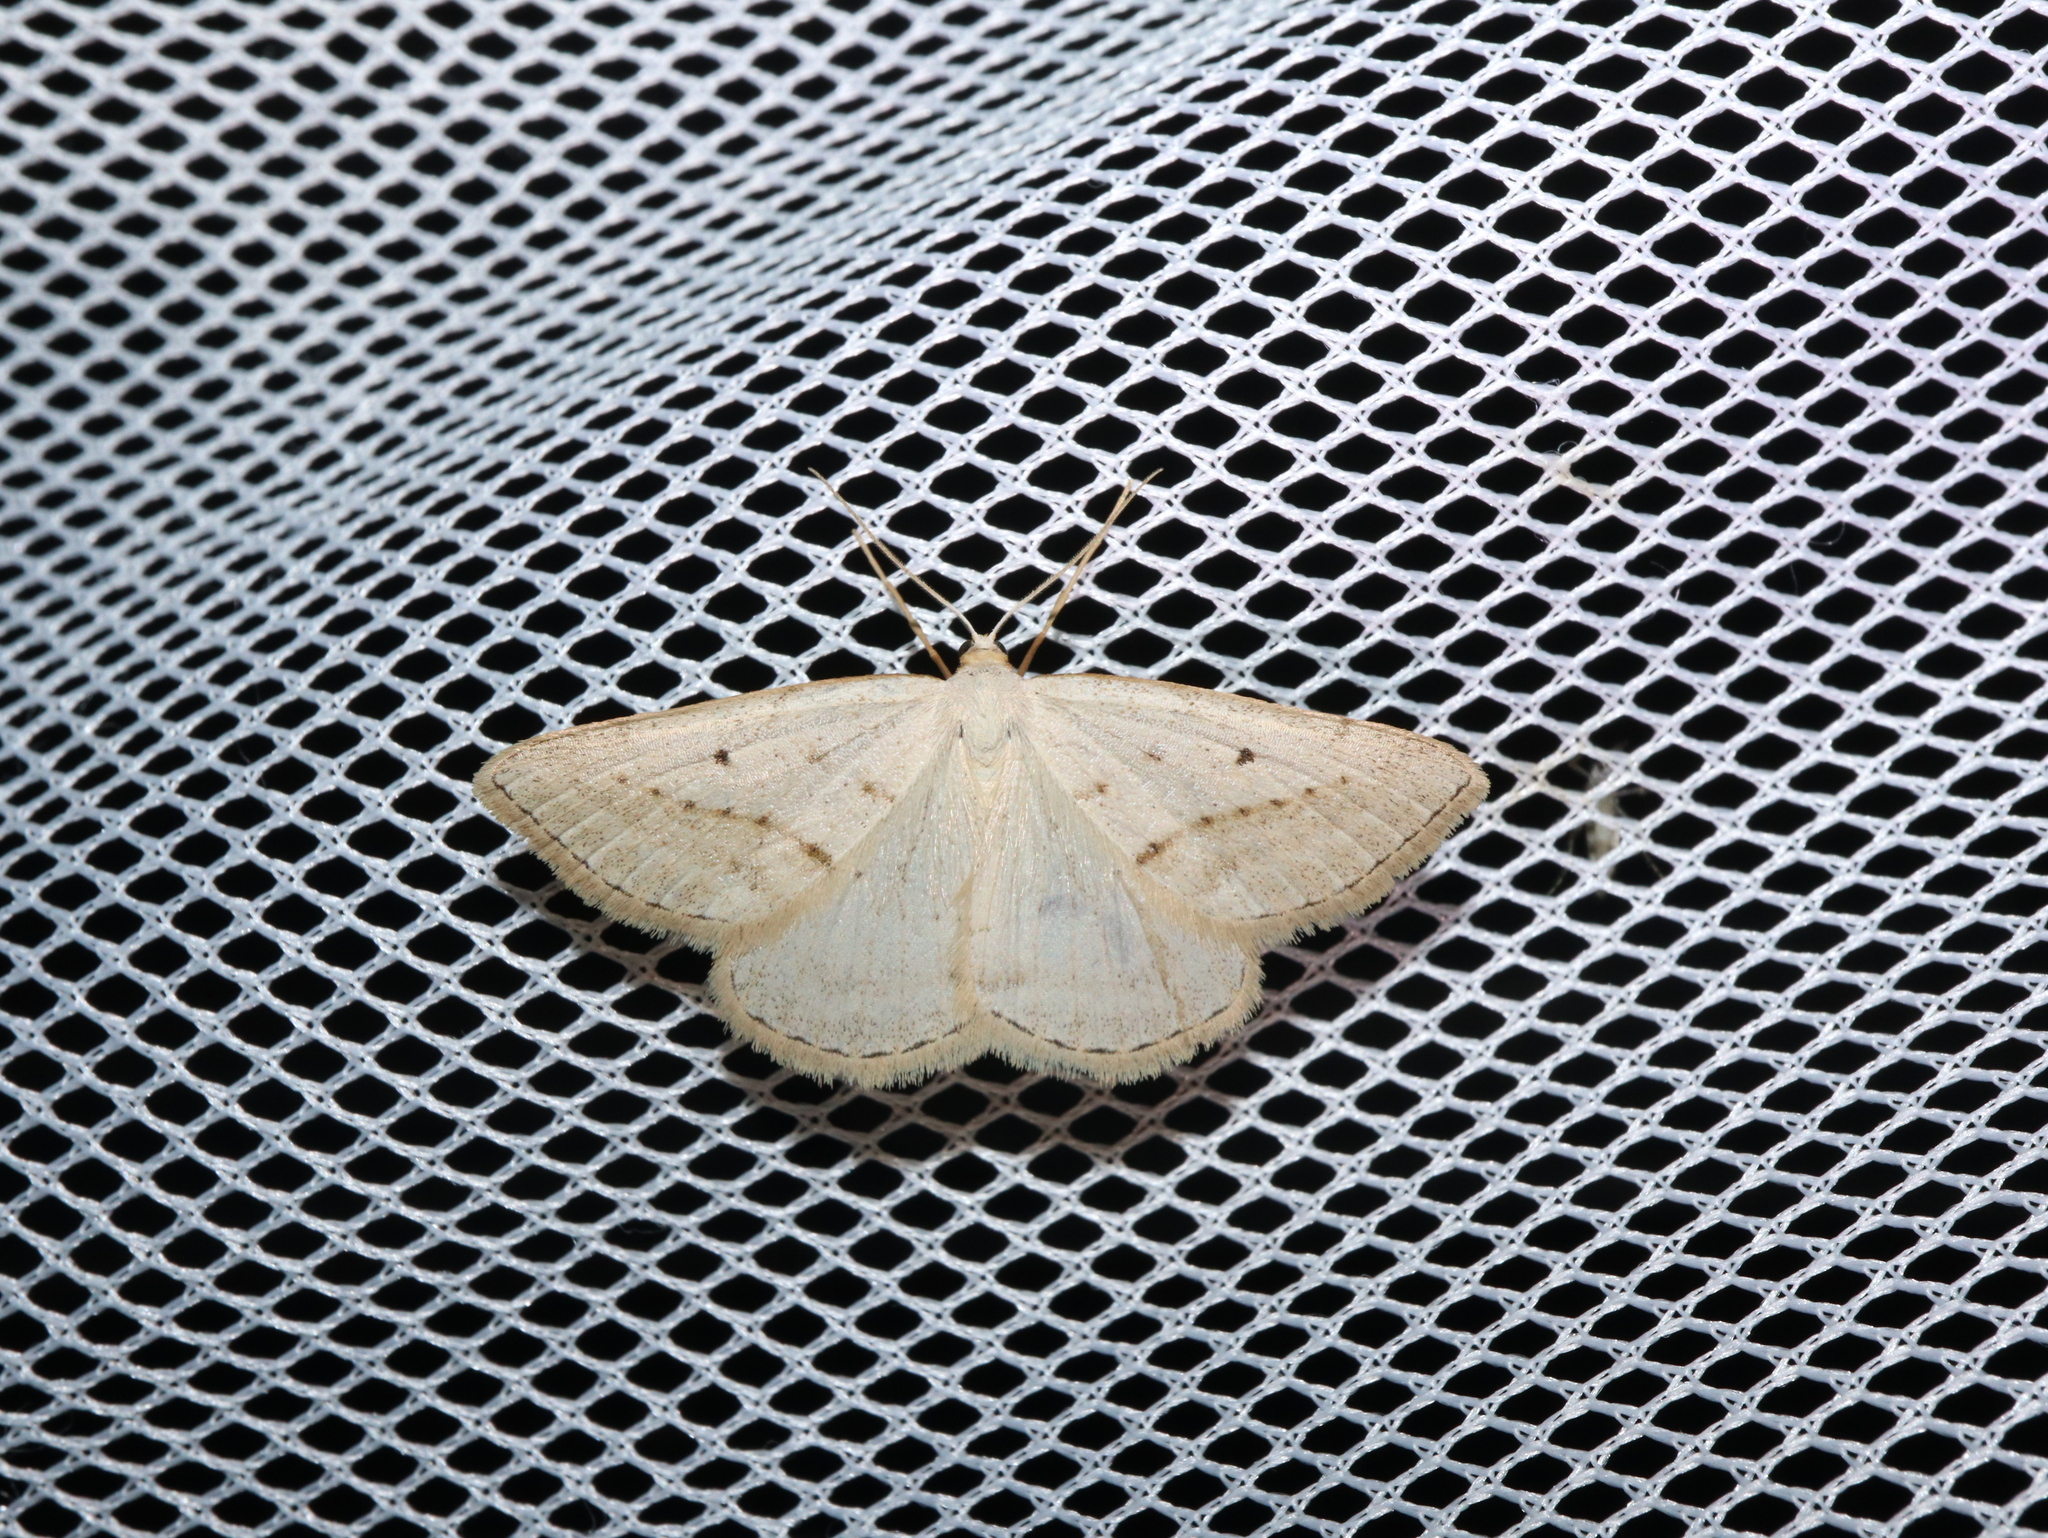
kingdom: Animalia
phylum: Arthropoda
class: Insecta
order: Lepidoptera
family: Geometridae
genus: Taxeotis
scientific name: Taxeotis endela
